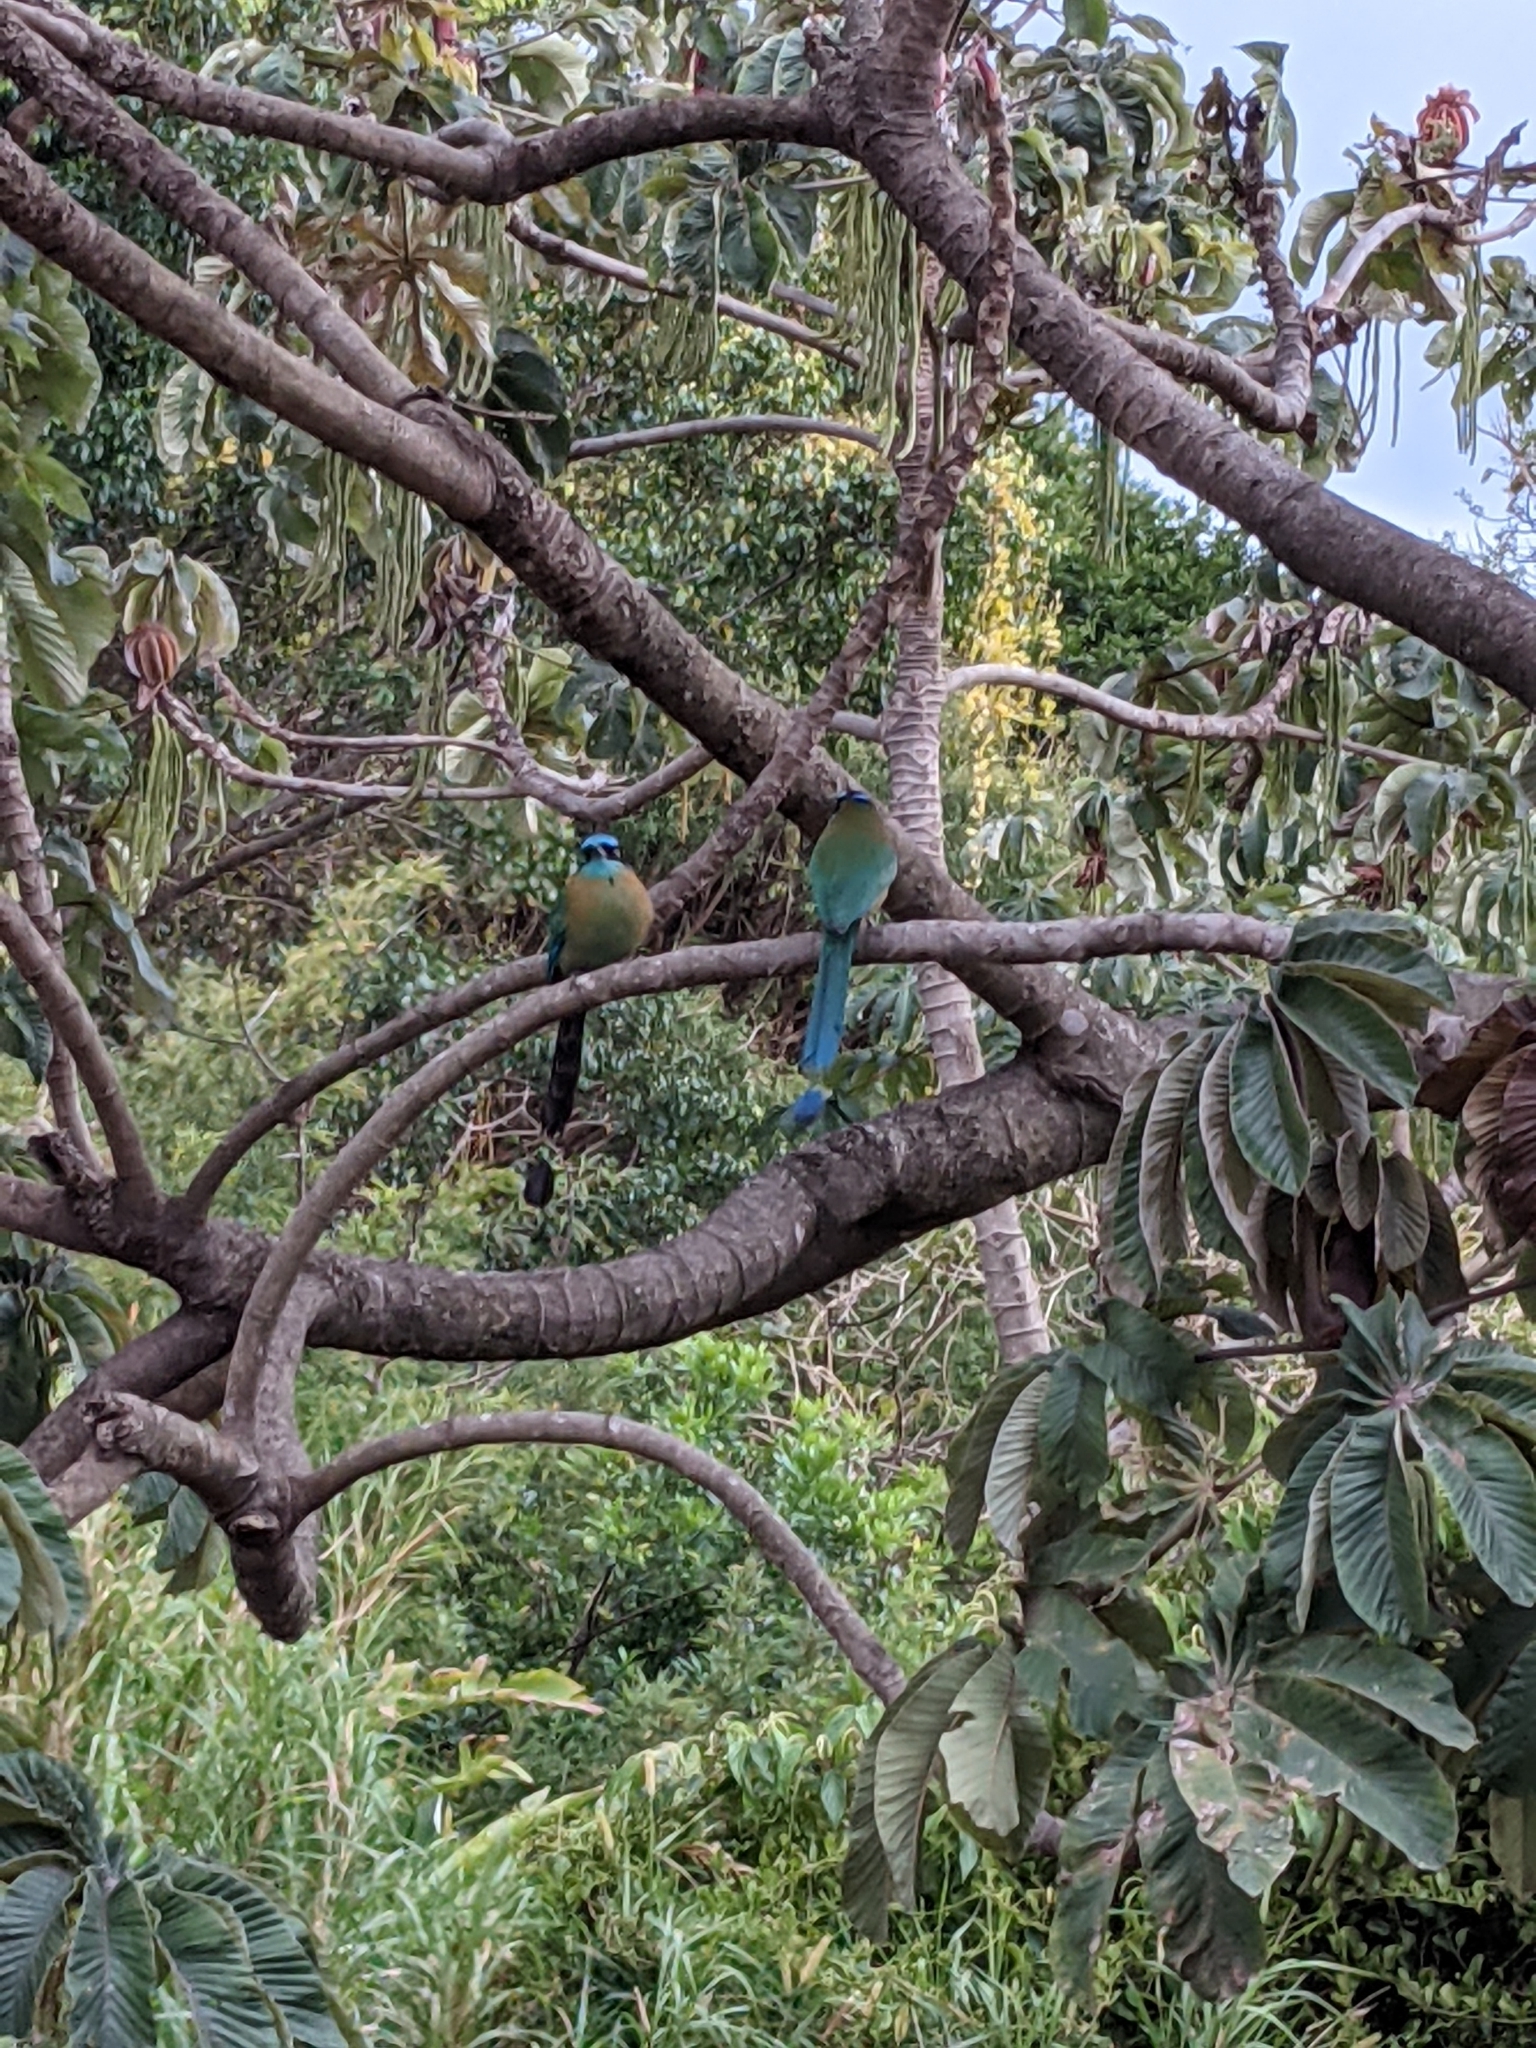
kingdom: Animalia
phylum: Chordata
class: Aves
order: Coraciiformes
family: Momotidae
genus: Momotus
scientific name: Momotus lessonii
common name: Lesson's motmot
